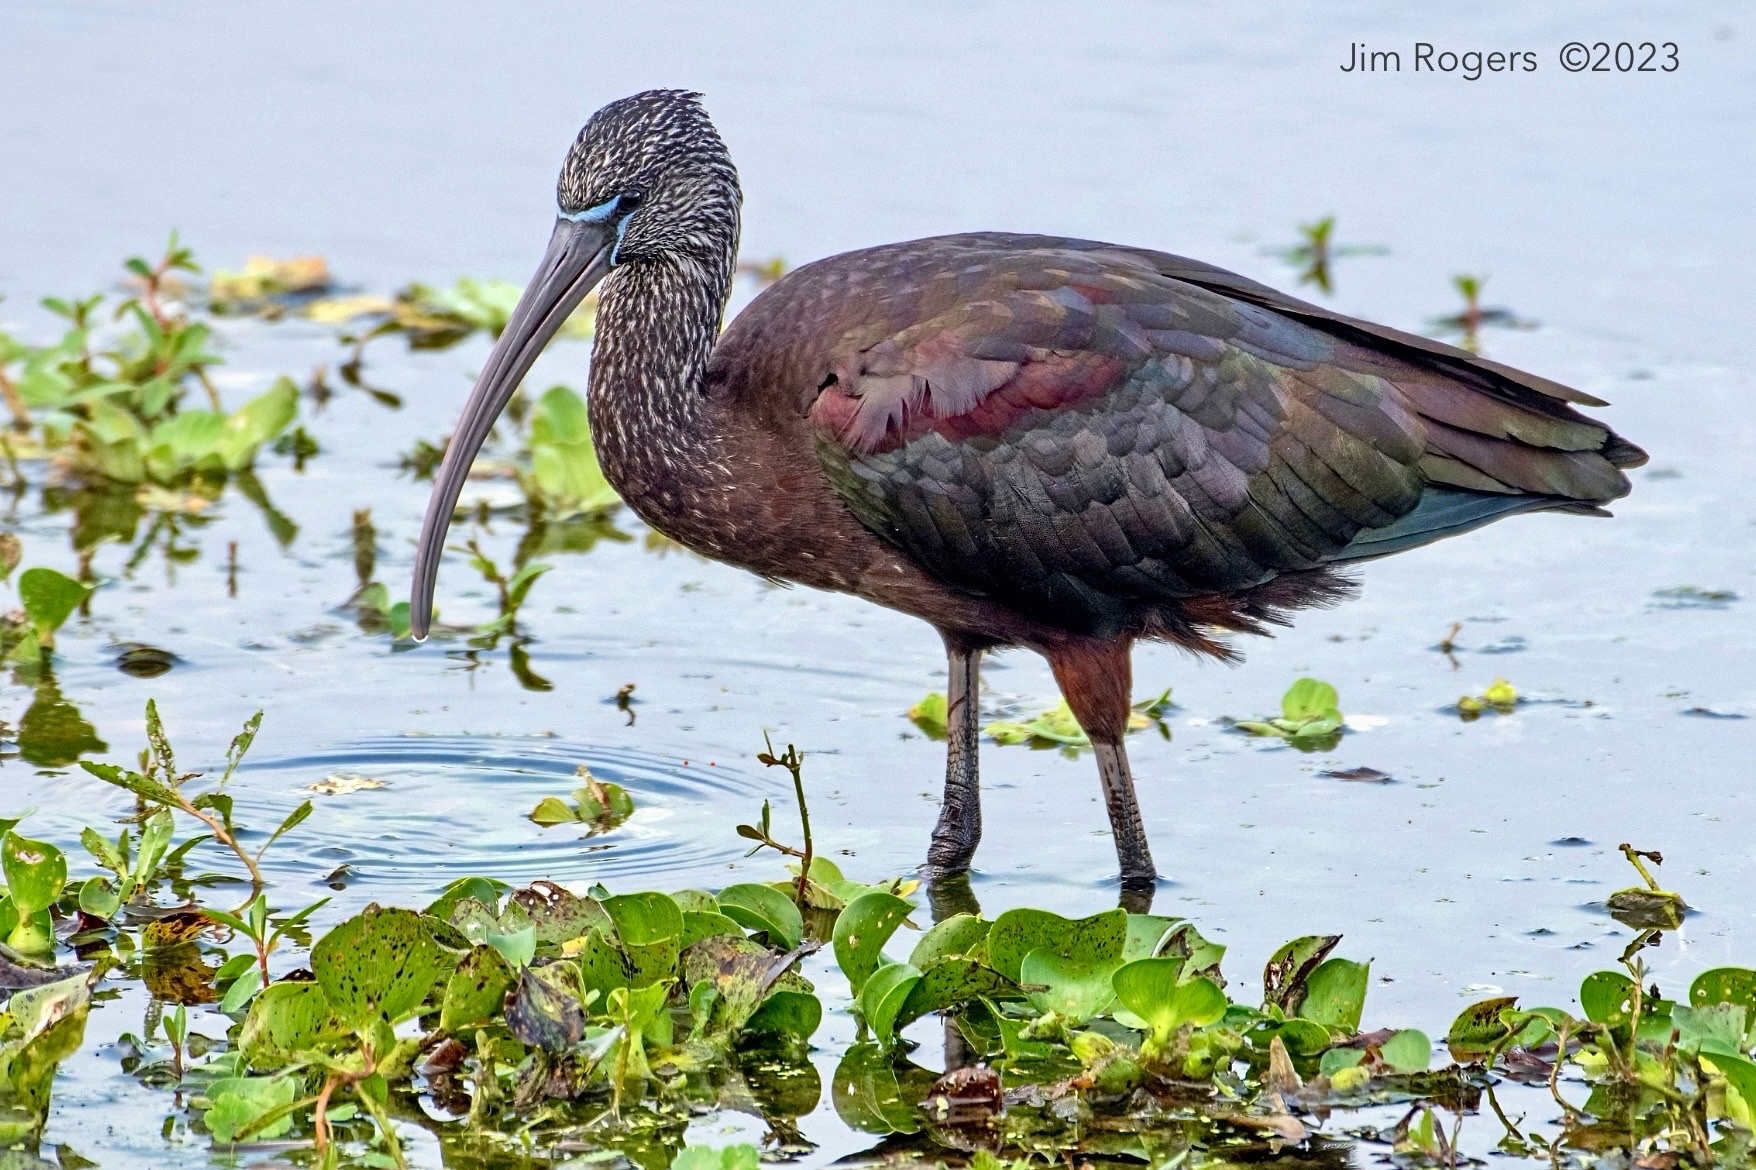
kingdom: Animalia
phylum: Chordata
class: Aves
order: Pelecaniformes
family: Threskiornithidae
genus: Plegadis
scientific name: Plegadis falcinellus
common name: Glossy ibis
